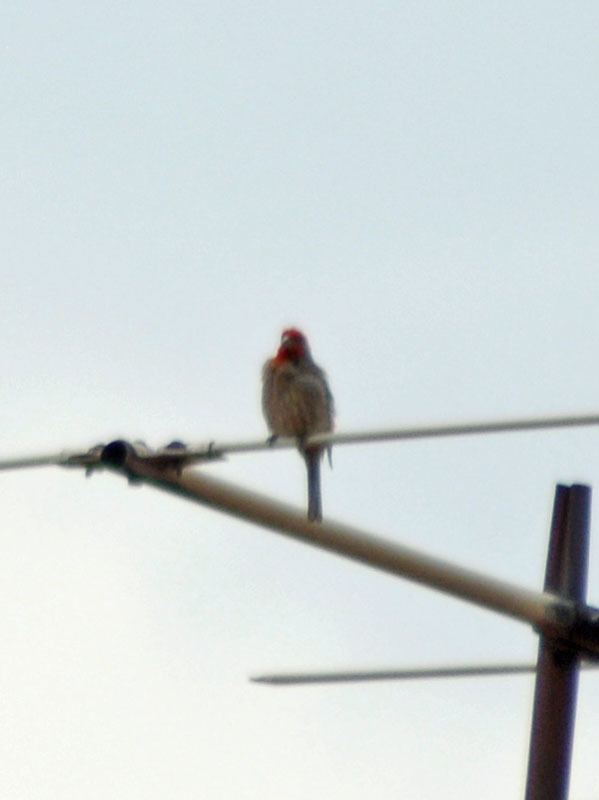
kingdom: Animalia
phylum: Chordata
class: Aves
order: Passeriformes
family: Fringillidae
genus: Haemorhous
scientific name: Haemorhous mexicanus
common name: House finch
